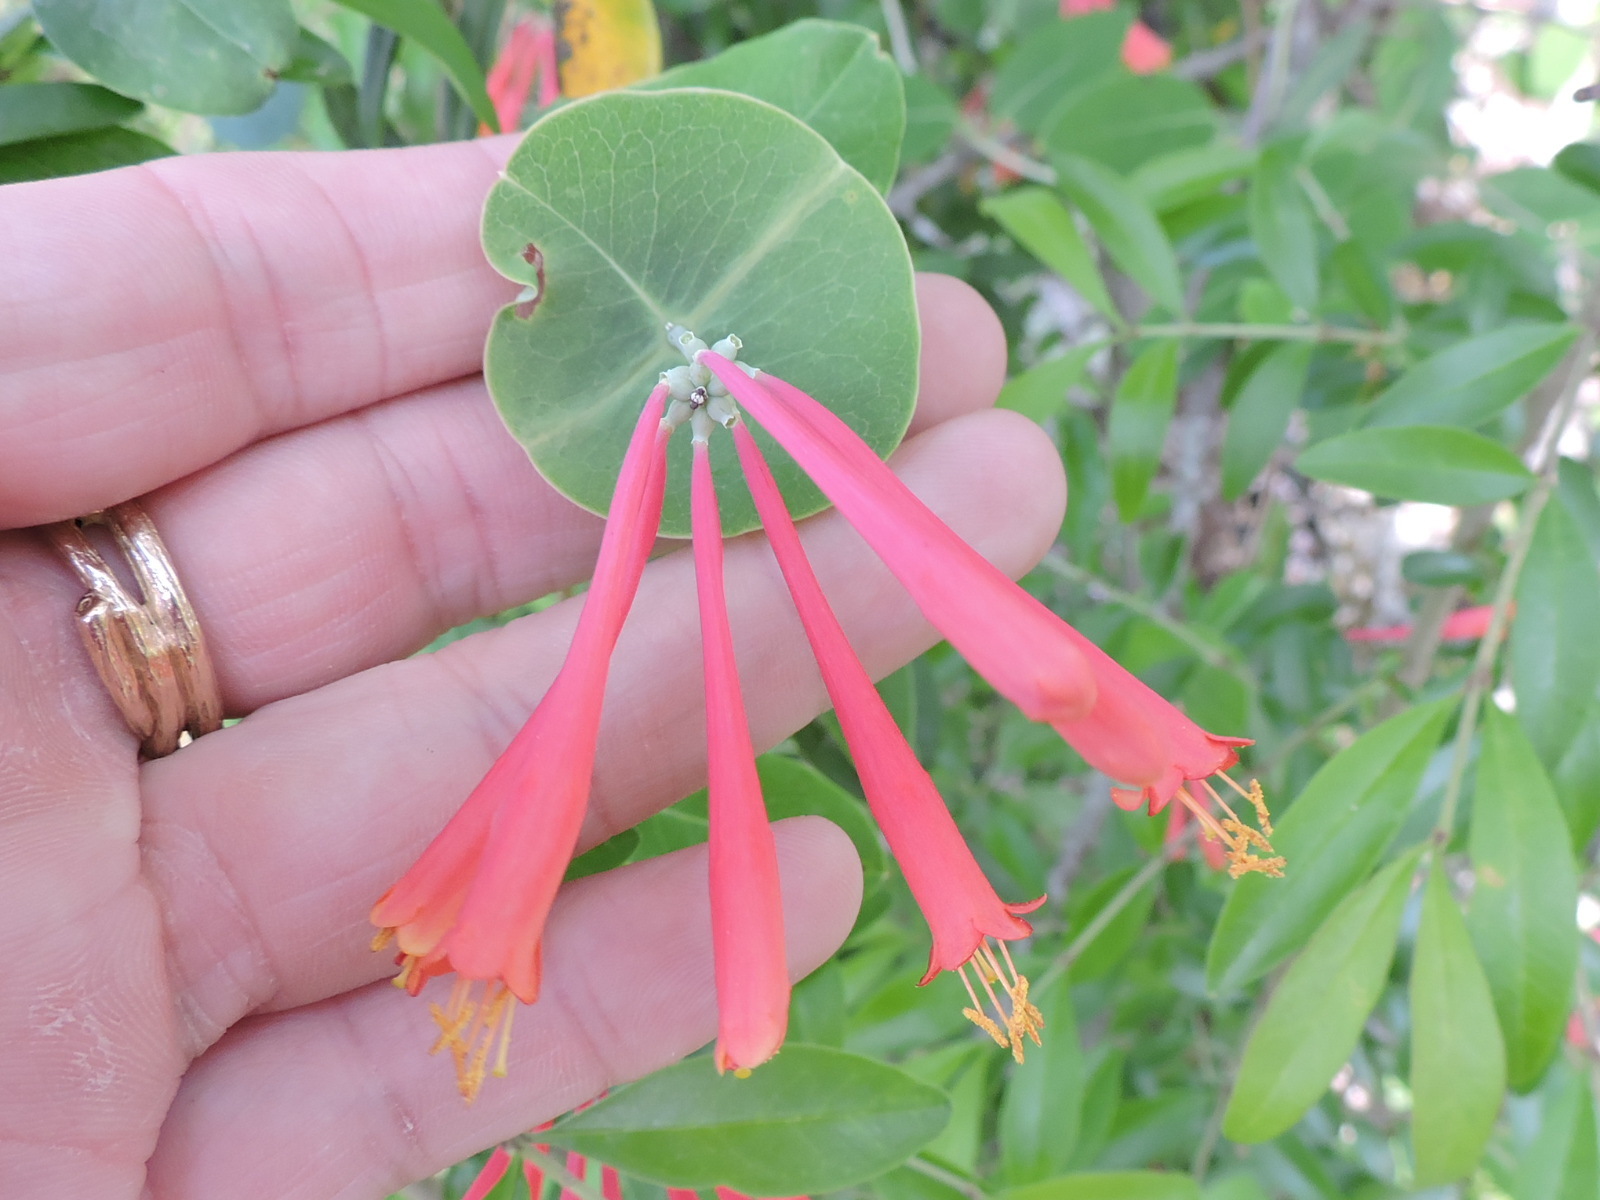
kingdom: Plantae
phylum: Tracheophyta
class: Magnoliopsida
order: Dipsacales
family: Caprifoliaceae
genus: Lonicera
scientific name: Lonicera sempervirens
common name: Coral honeysuckle
